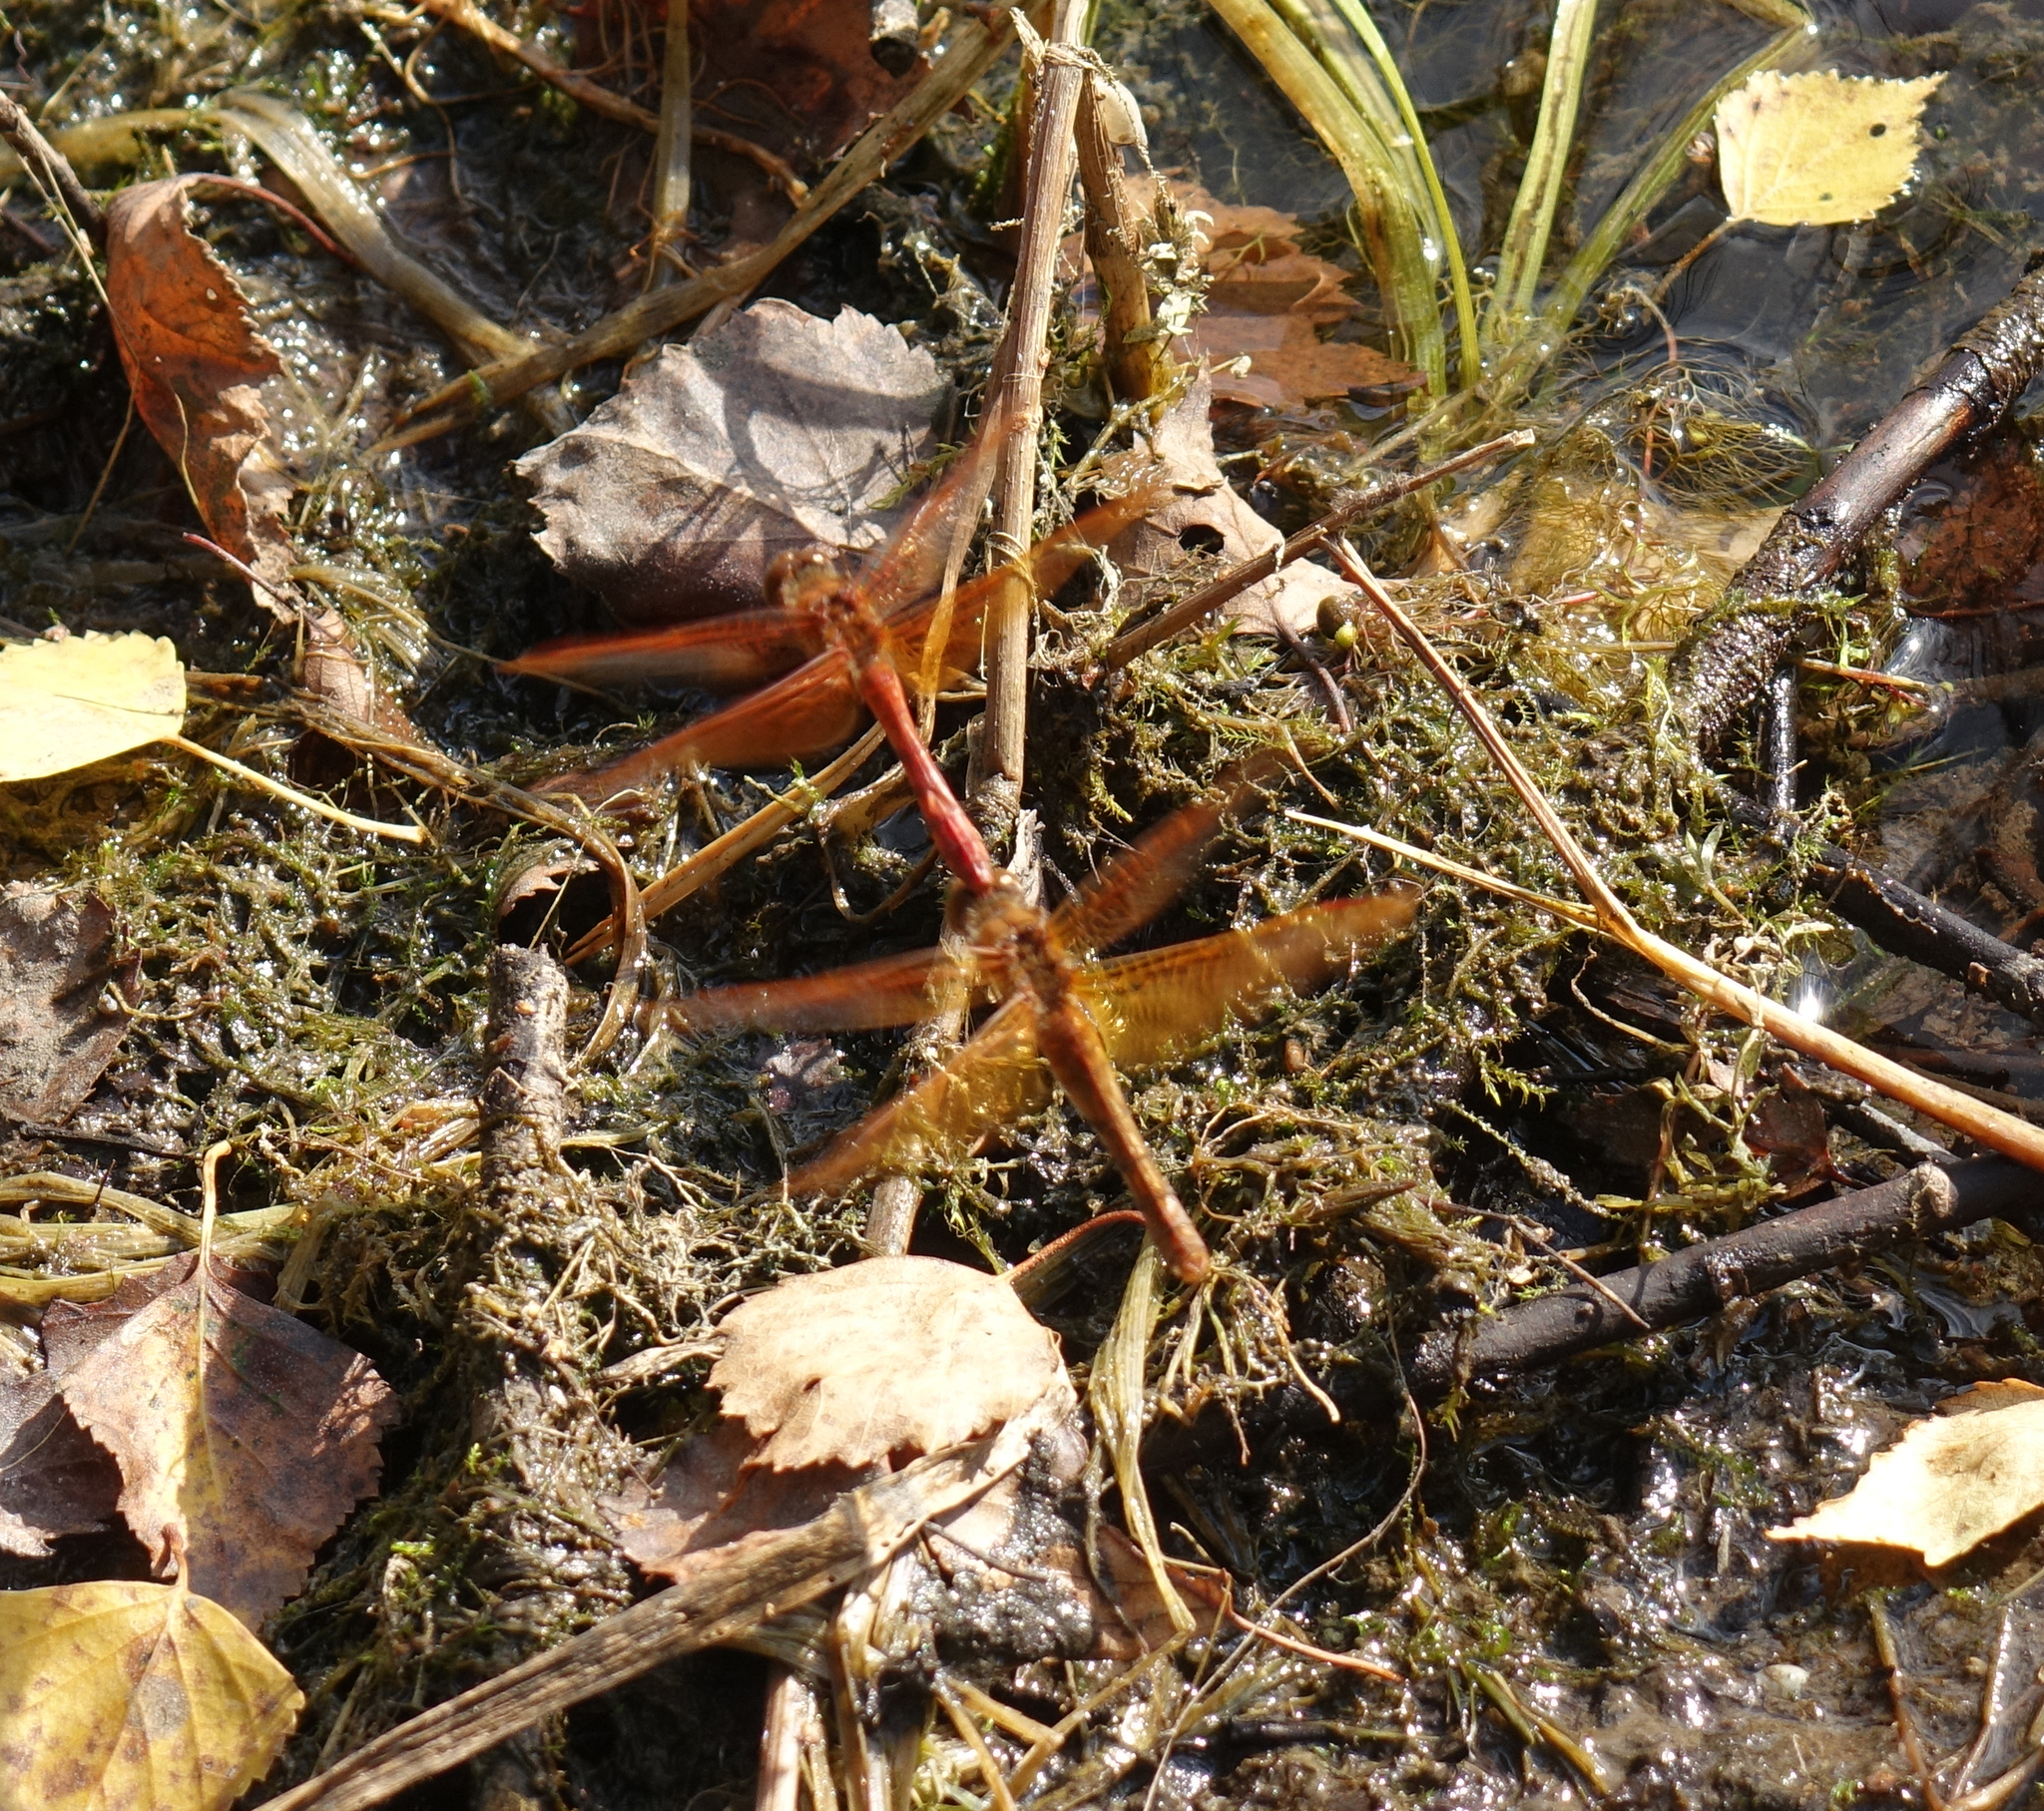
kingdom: Animalia
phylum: Arthropoda
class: Insecta
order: Odonata
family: Libellulidae
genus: Sympetrum
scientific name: Sympetrum croceolum
